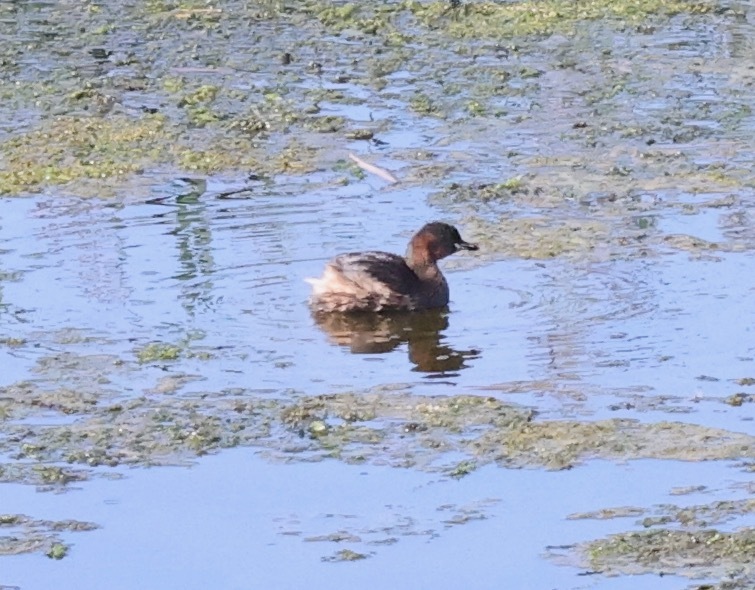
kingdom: Animalia
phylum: Chordata
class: Aves
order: Podicipediformes
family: Podicipedidae
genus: Tachybaptus
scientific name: Tachybaptus ruficollis
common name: Little grebe
